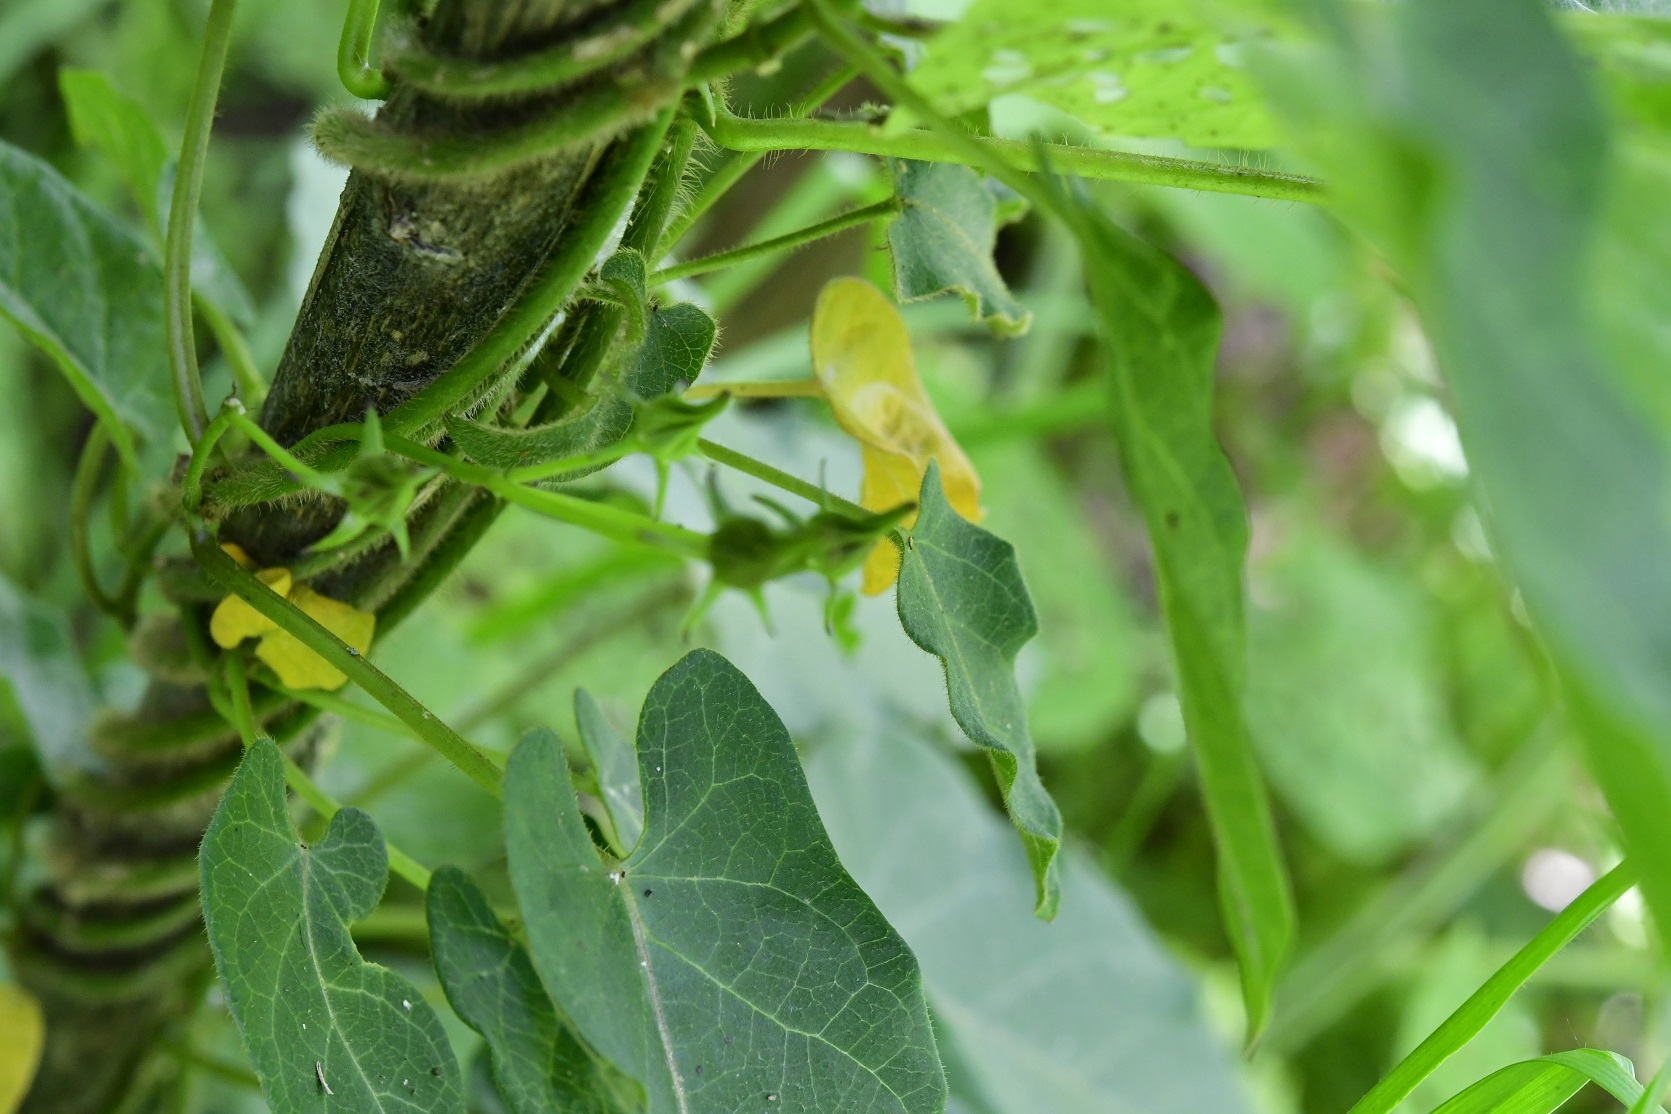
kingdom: Plantae
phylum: Tracheophyta
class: Magnoliopsida
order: Gentianales
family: Apocynaceae
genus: Gonolobus
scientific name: Gonolobus breedlovei
